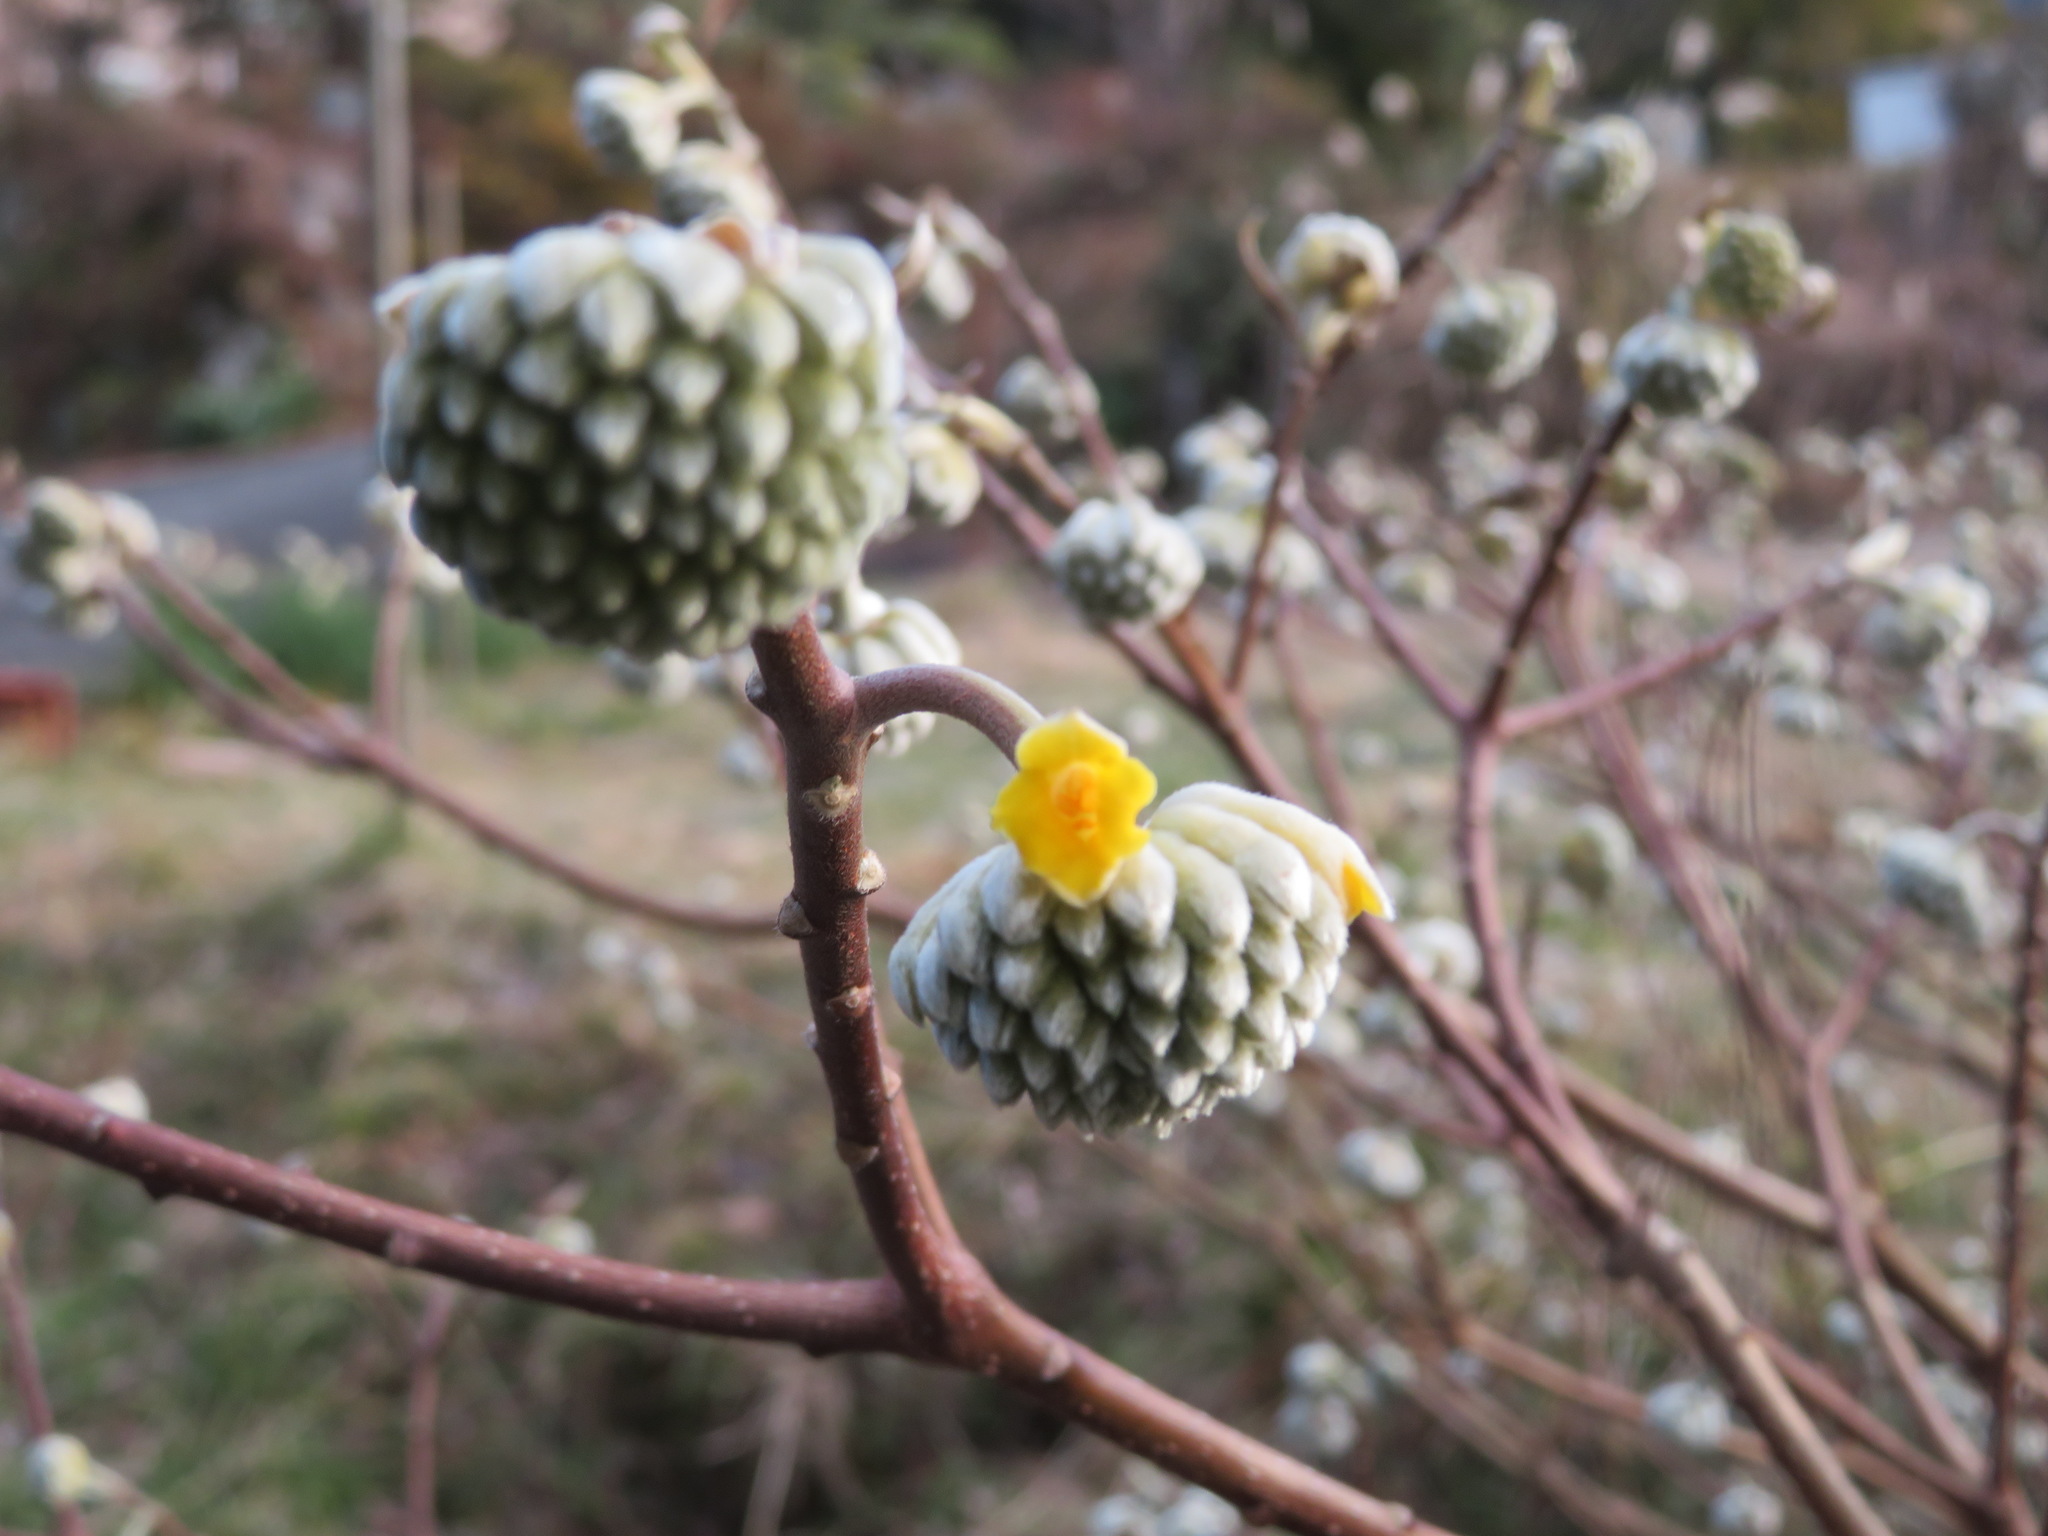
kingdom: Plantae
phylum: Tracheophyta
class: Magnoliopsida
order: Malvales
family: Thymelaeaceae
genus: Edgeworthia
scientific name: Edgeworthia chrysantha
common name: Oriental paperbush
